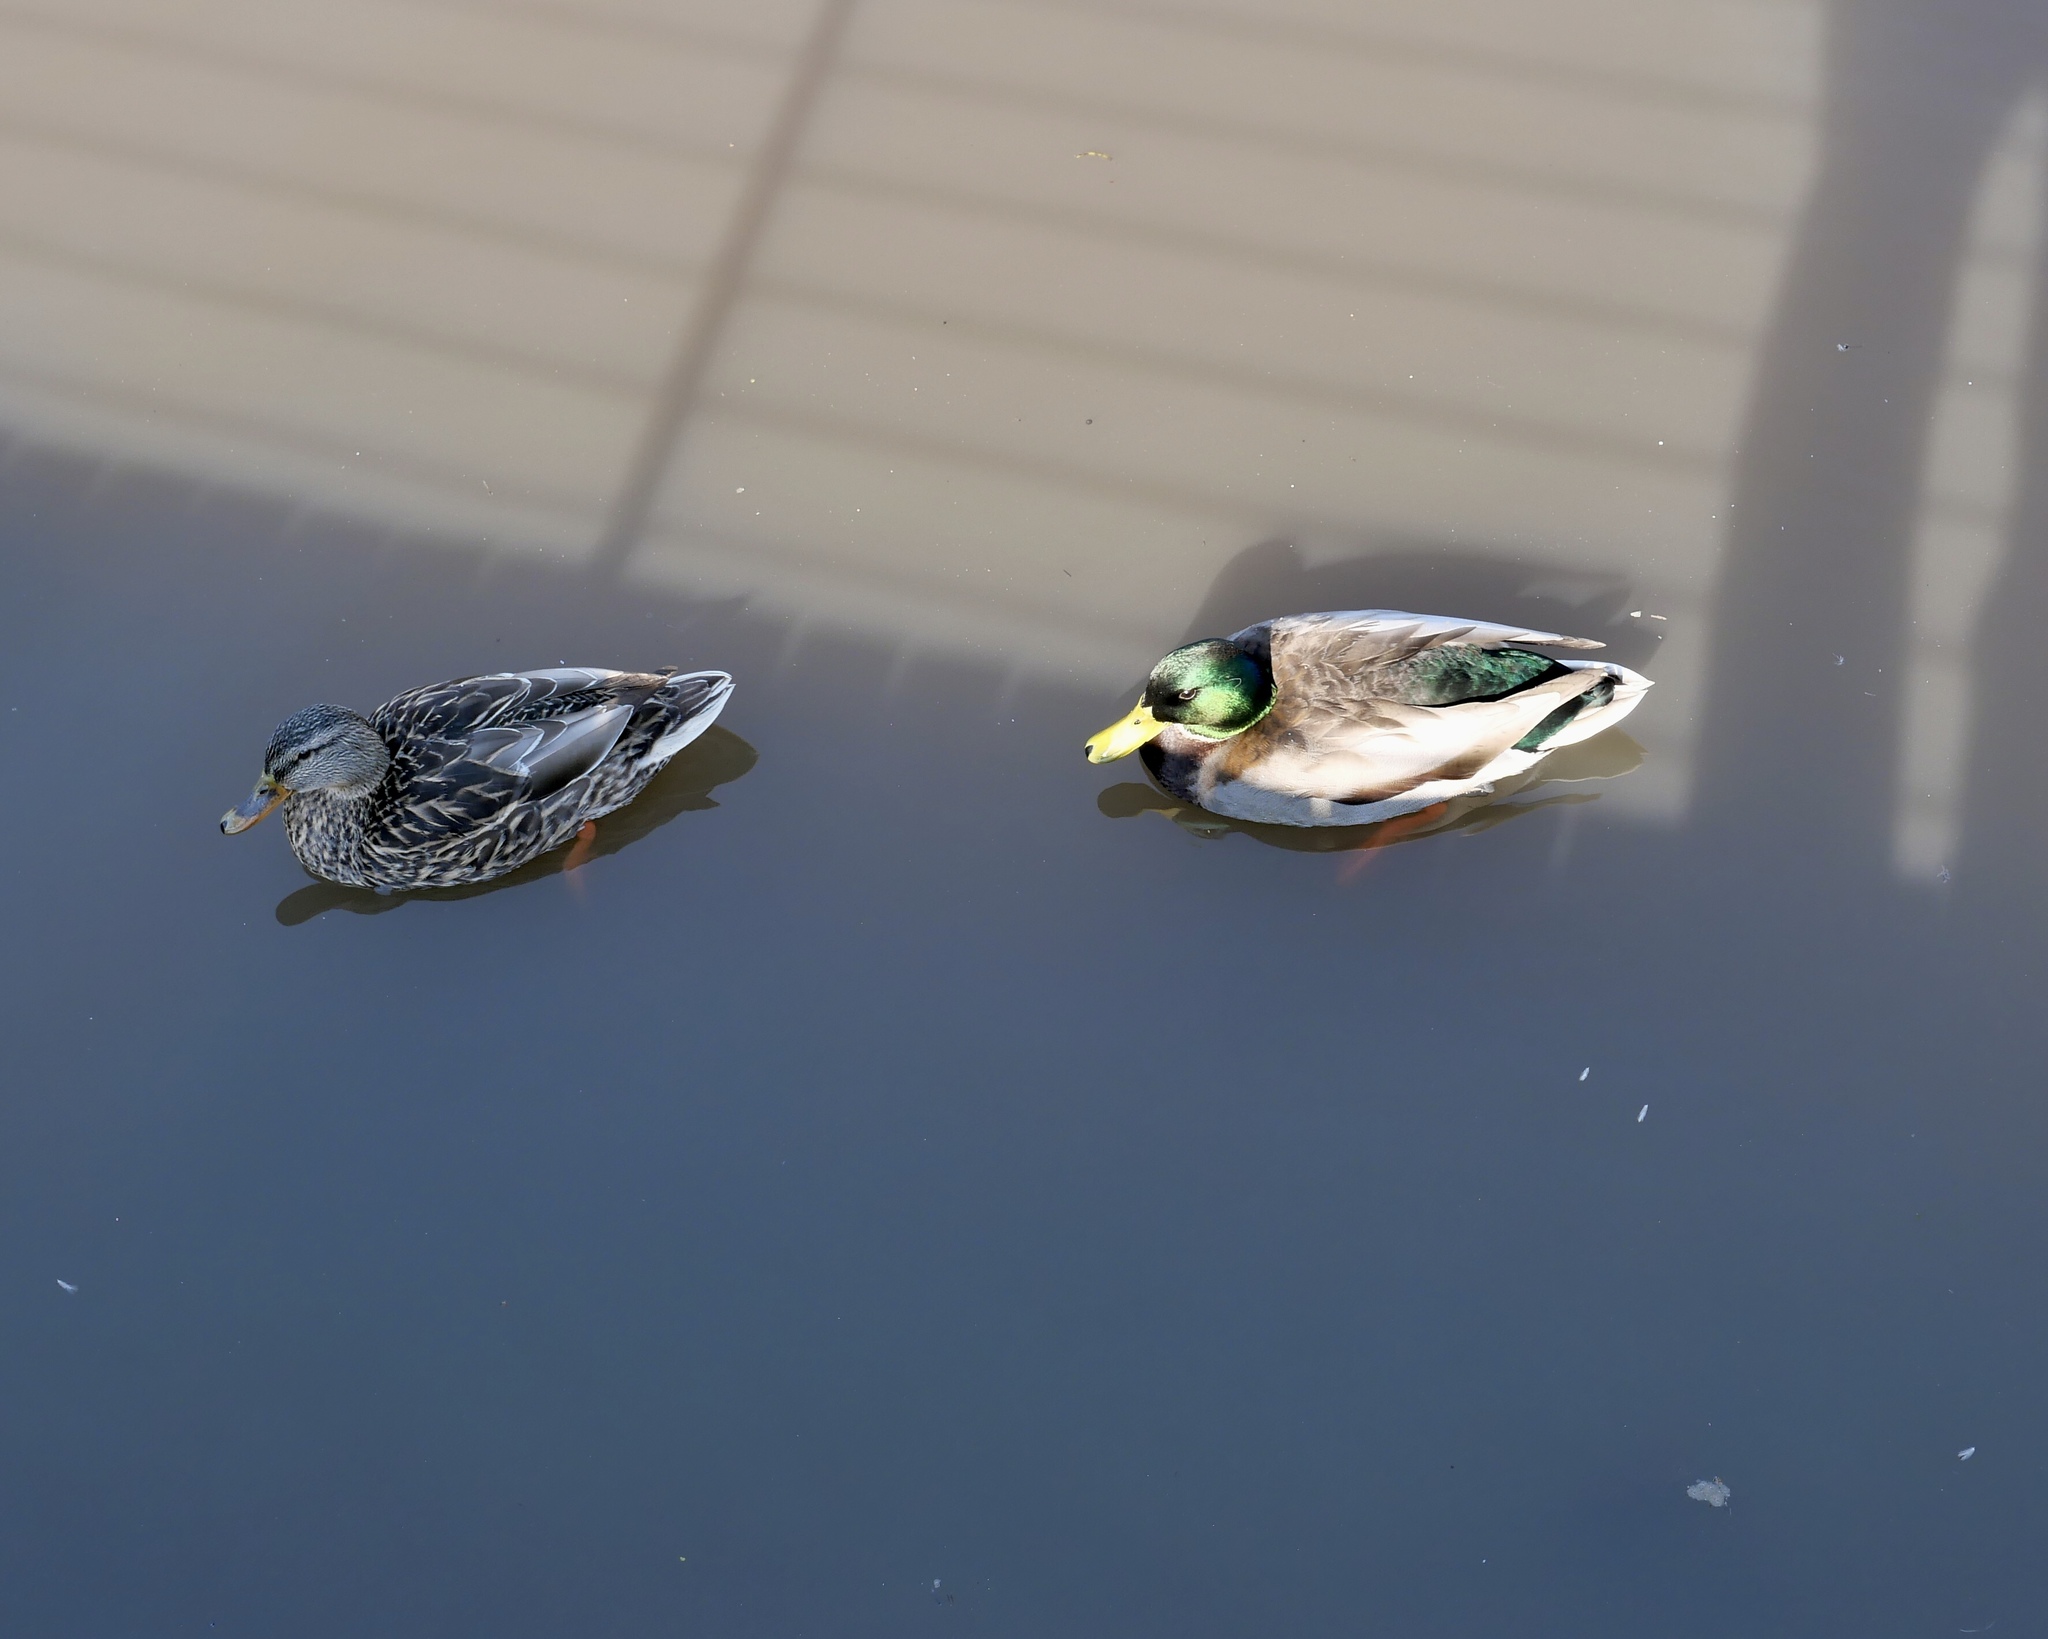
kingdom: Animalia
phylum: Chordata
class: Aves
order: Anseriformes
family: Anatidae
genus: Anas
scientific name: Anas platyrhynchos
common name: Mallard
